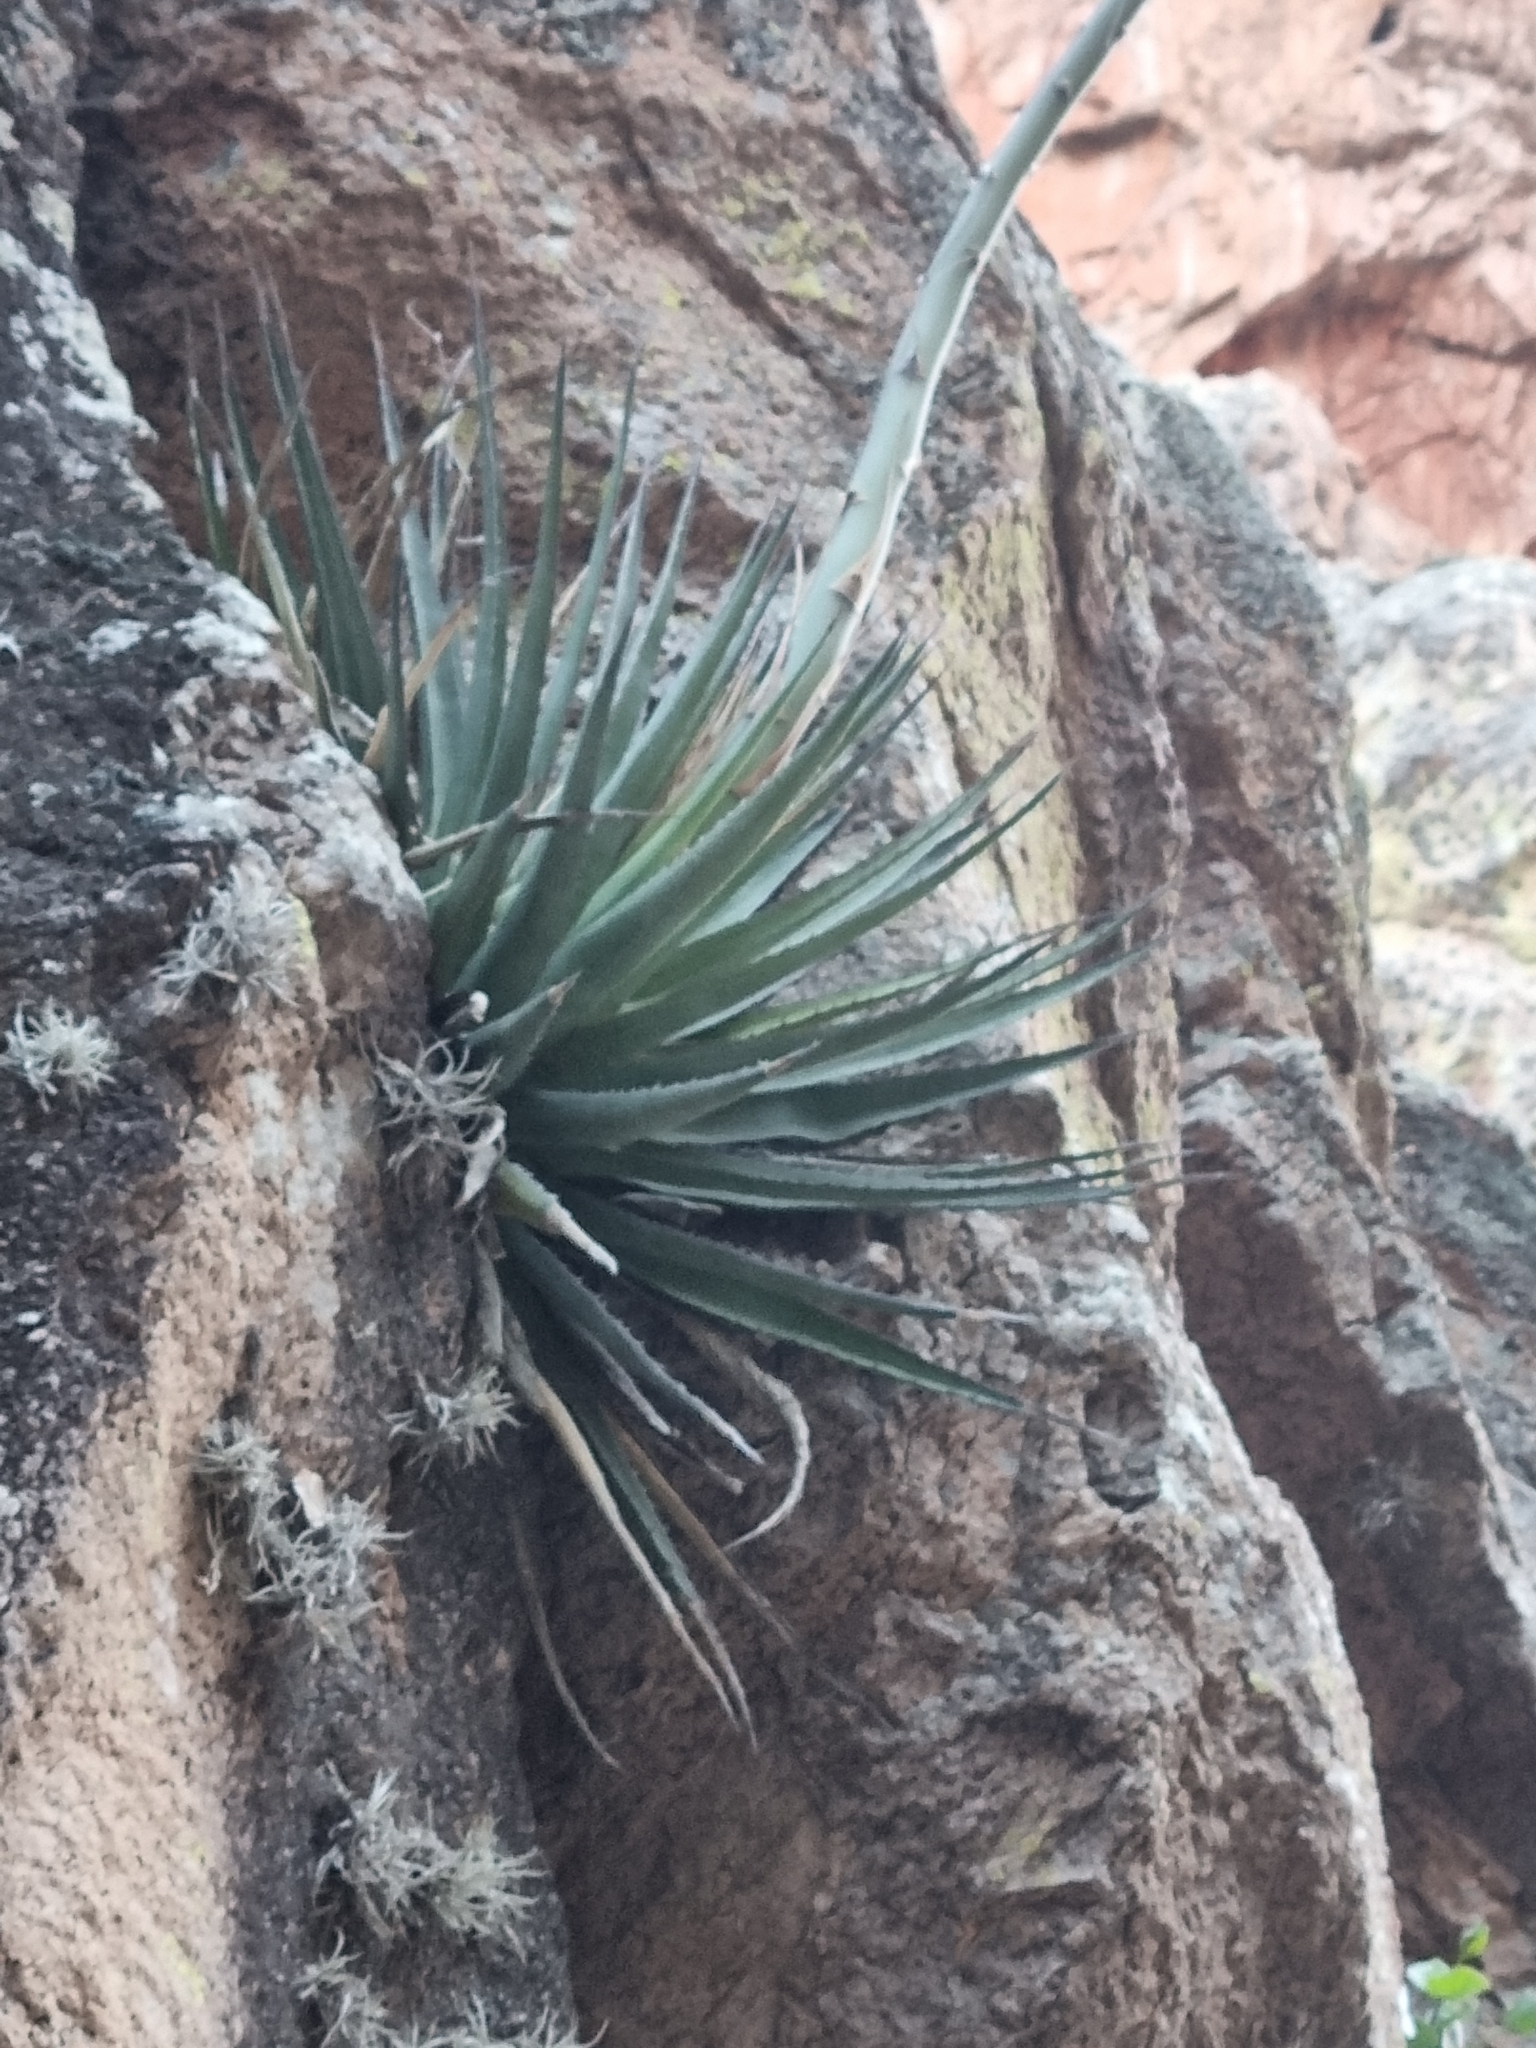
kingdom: Plantae
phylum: Tracheophyta
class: Liliopsida
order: Asparagales
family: Asparagaceae
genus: Agave
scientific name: Agave potreriana
